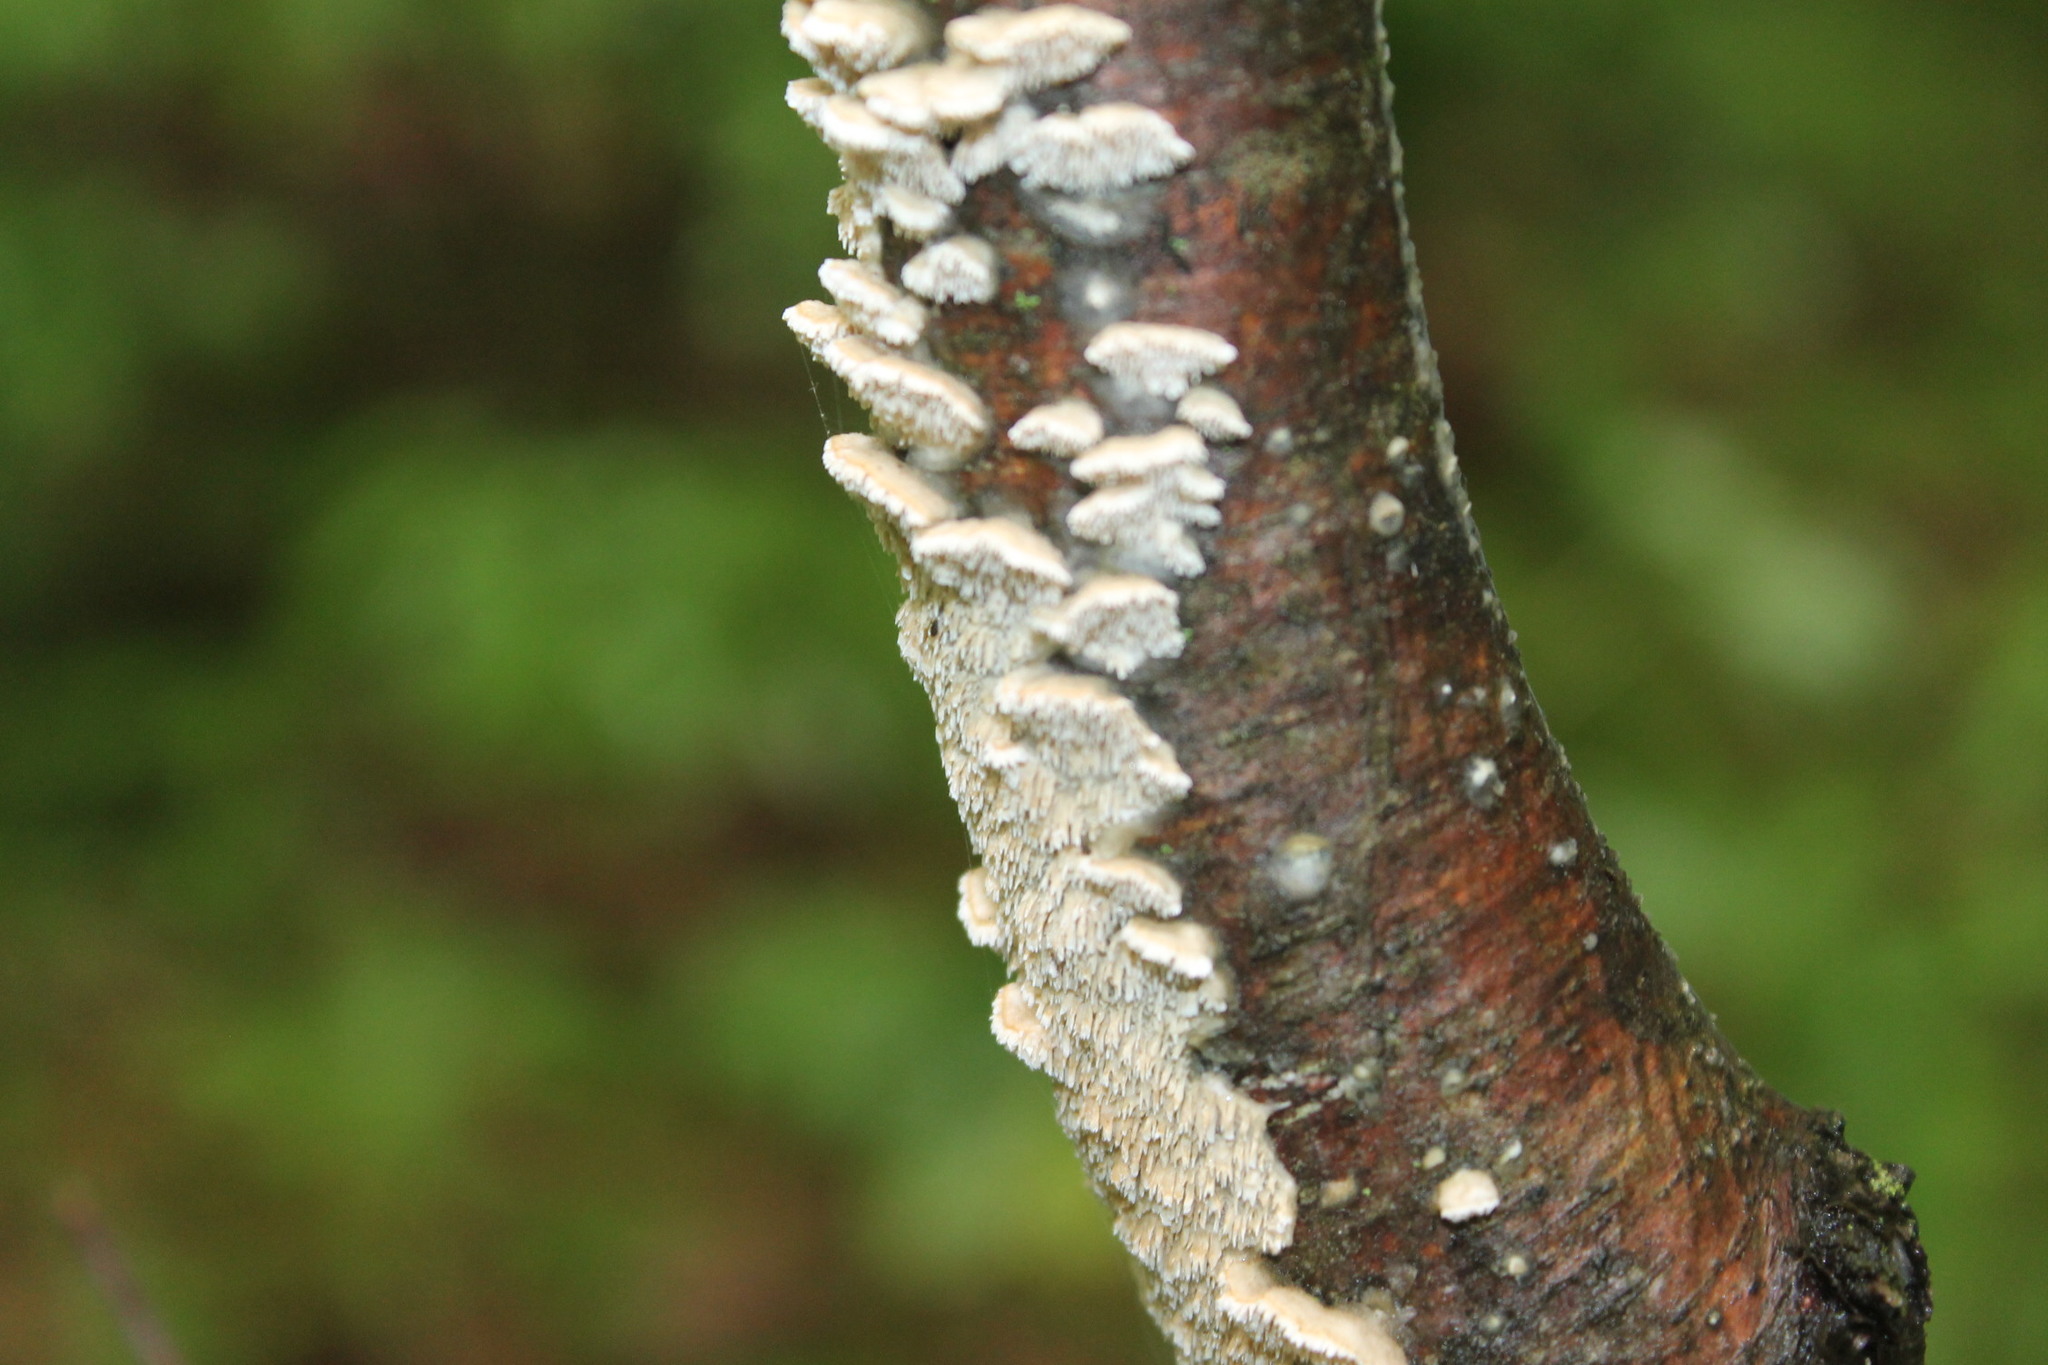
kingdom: Fungi
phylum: Basidiomycota
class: Agaricomycetes
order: Polyporales
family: Irpicaceae
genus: Irpex
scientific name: Irpex lacteus
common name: Milk-white toothed polypore
